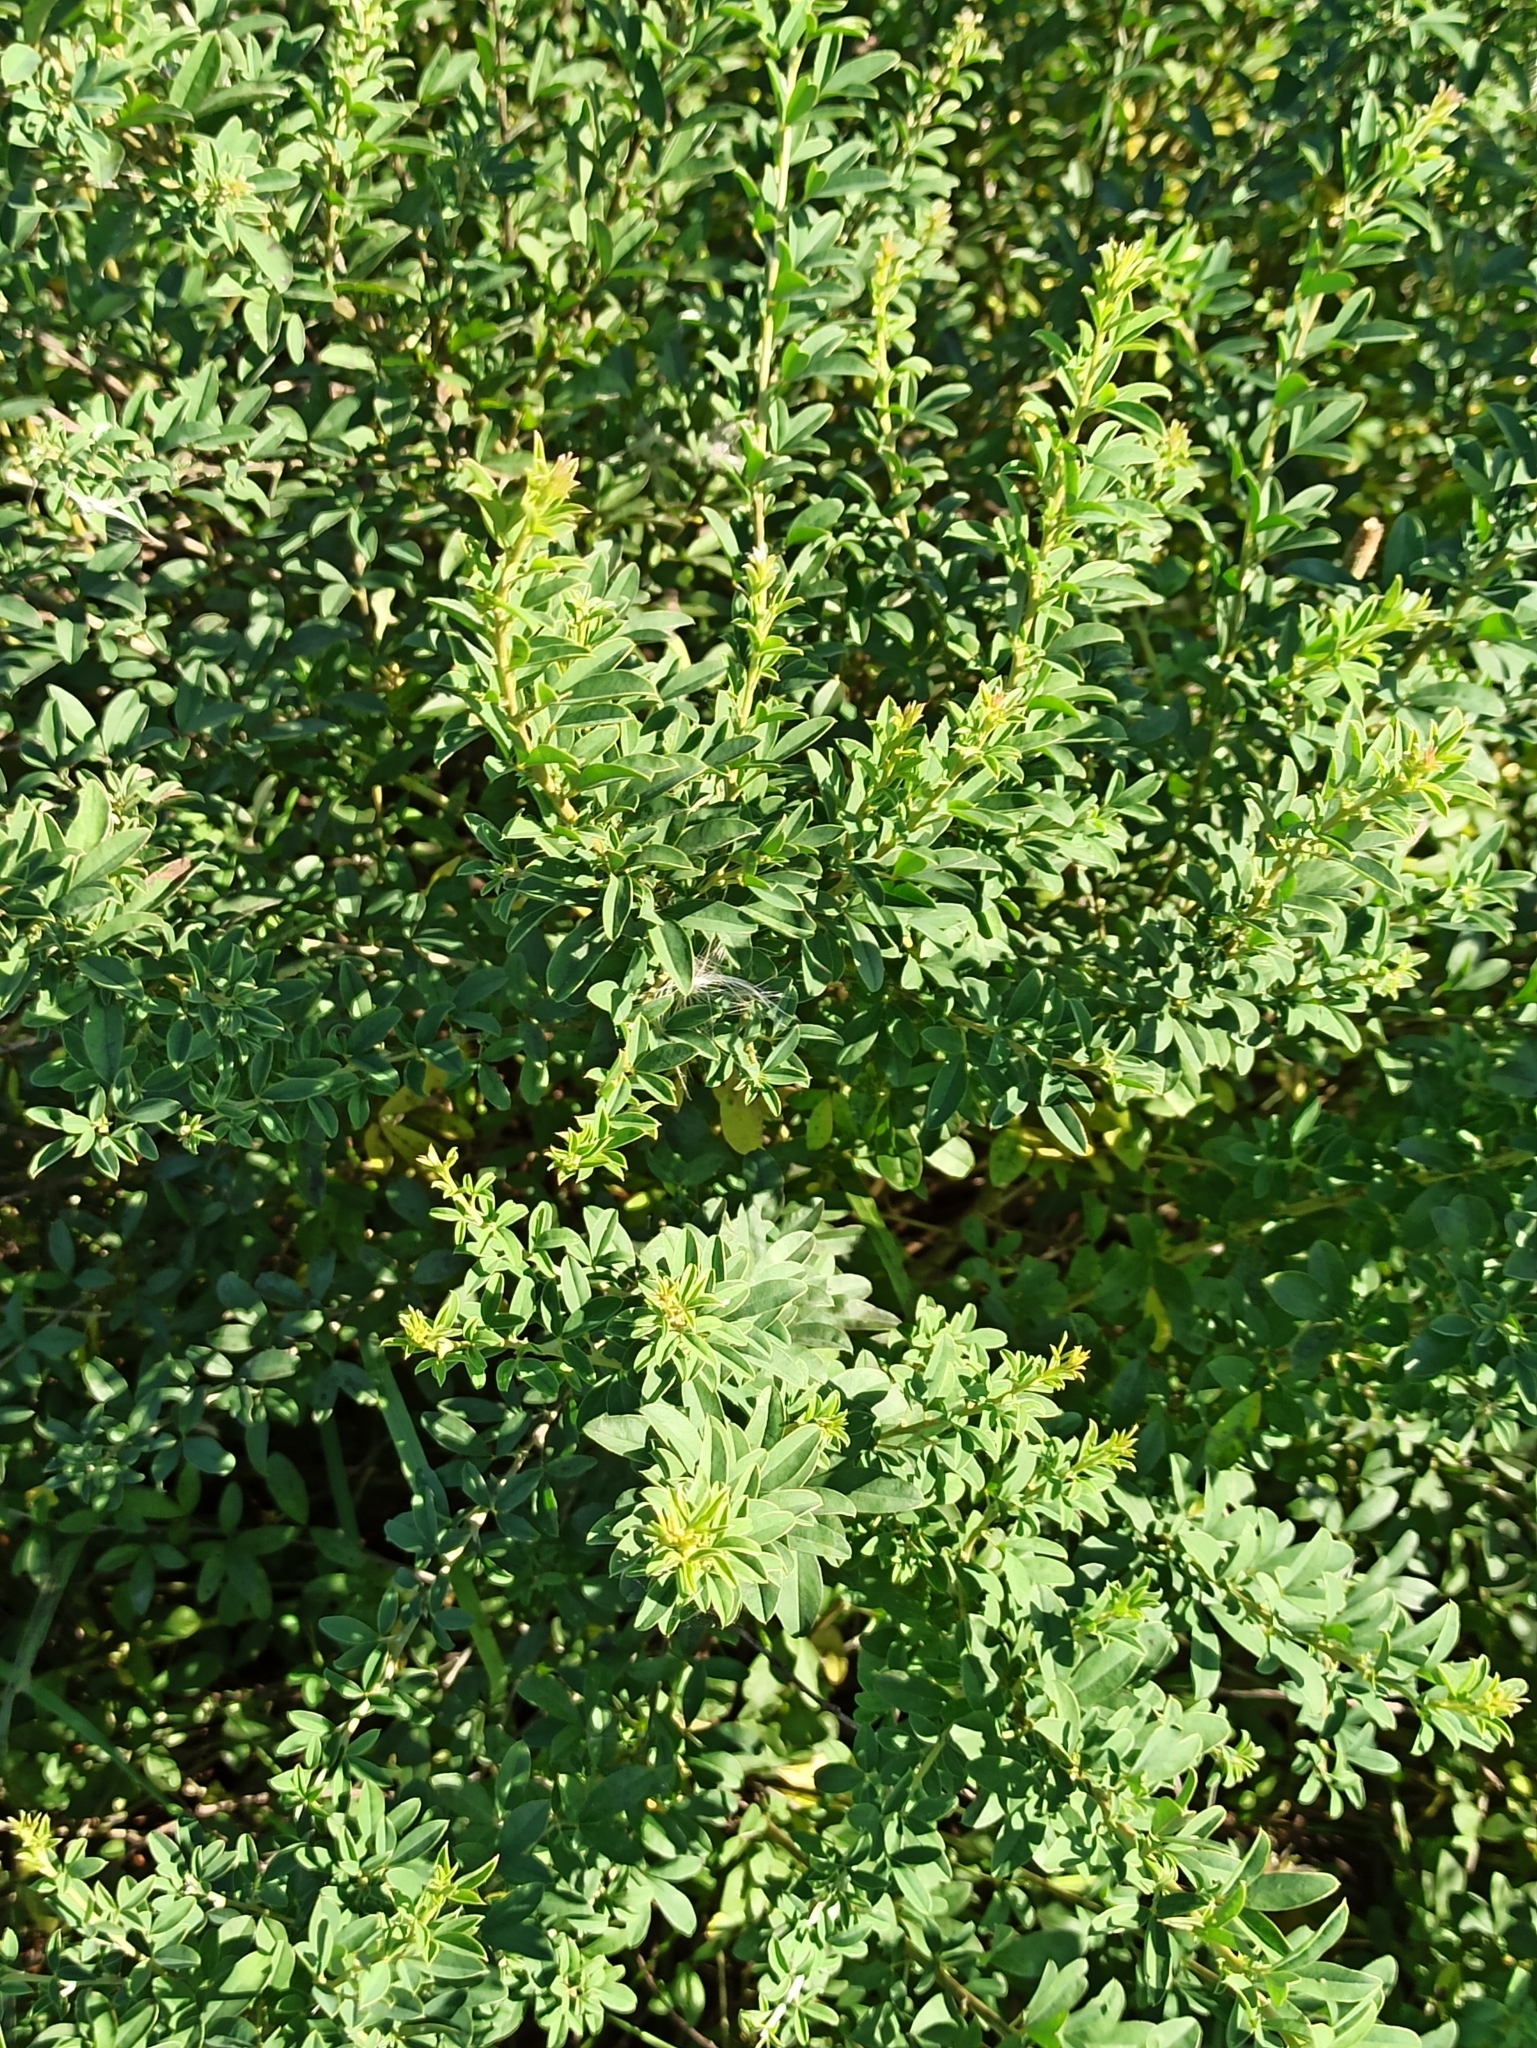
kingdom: Plantae
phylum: Tracheophyta
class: Magnoliopsida
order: Fabales
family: Fabaceae
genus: Chamaecytisus
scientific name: Chamaecytisus ruthenicus
